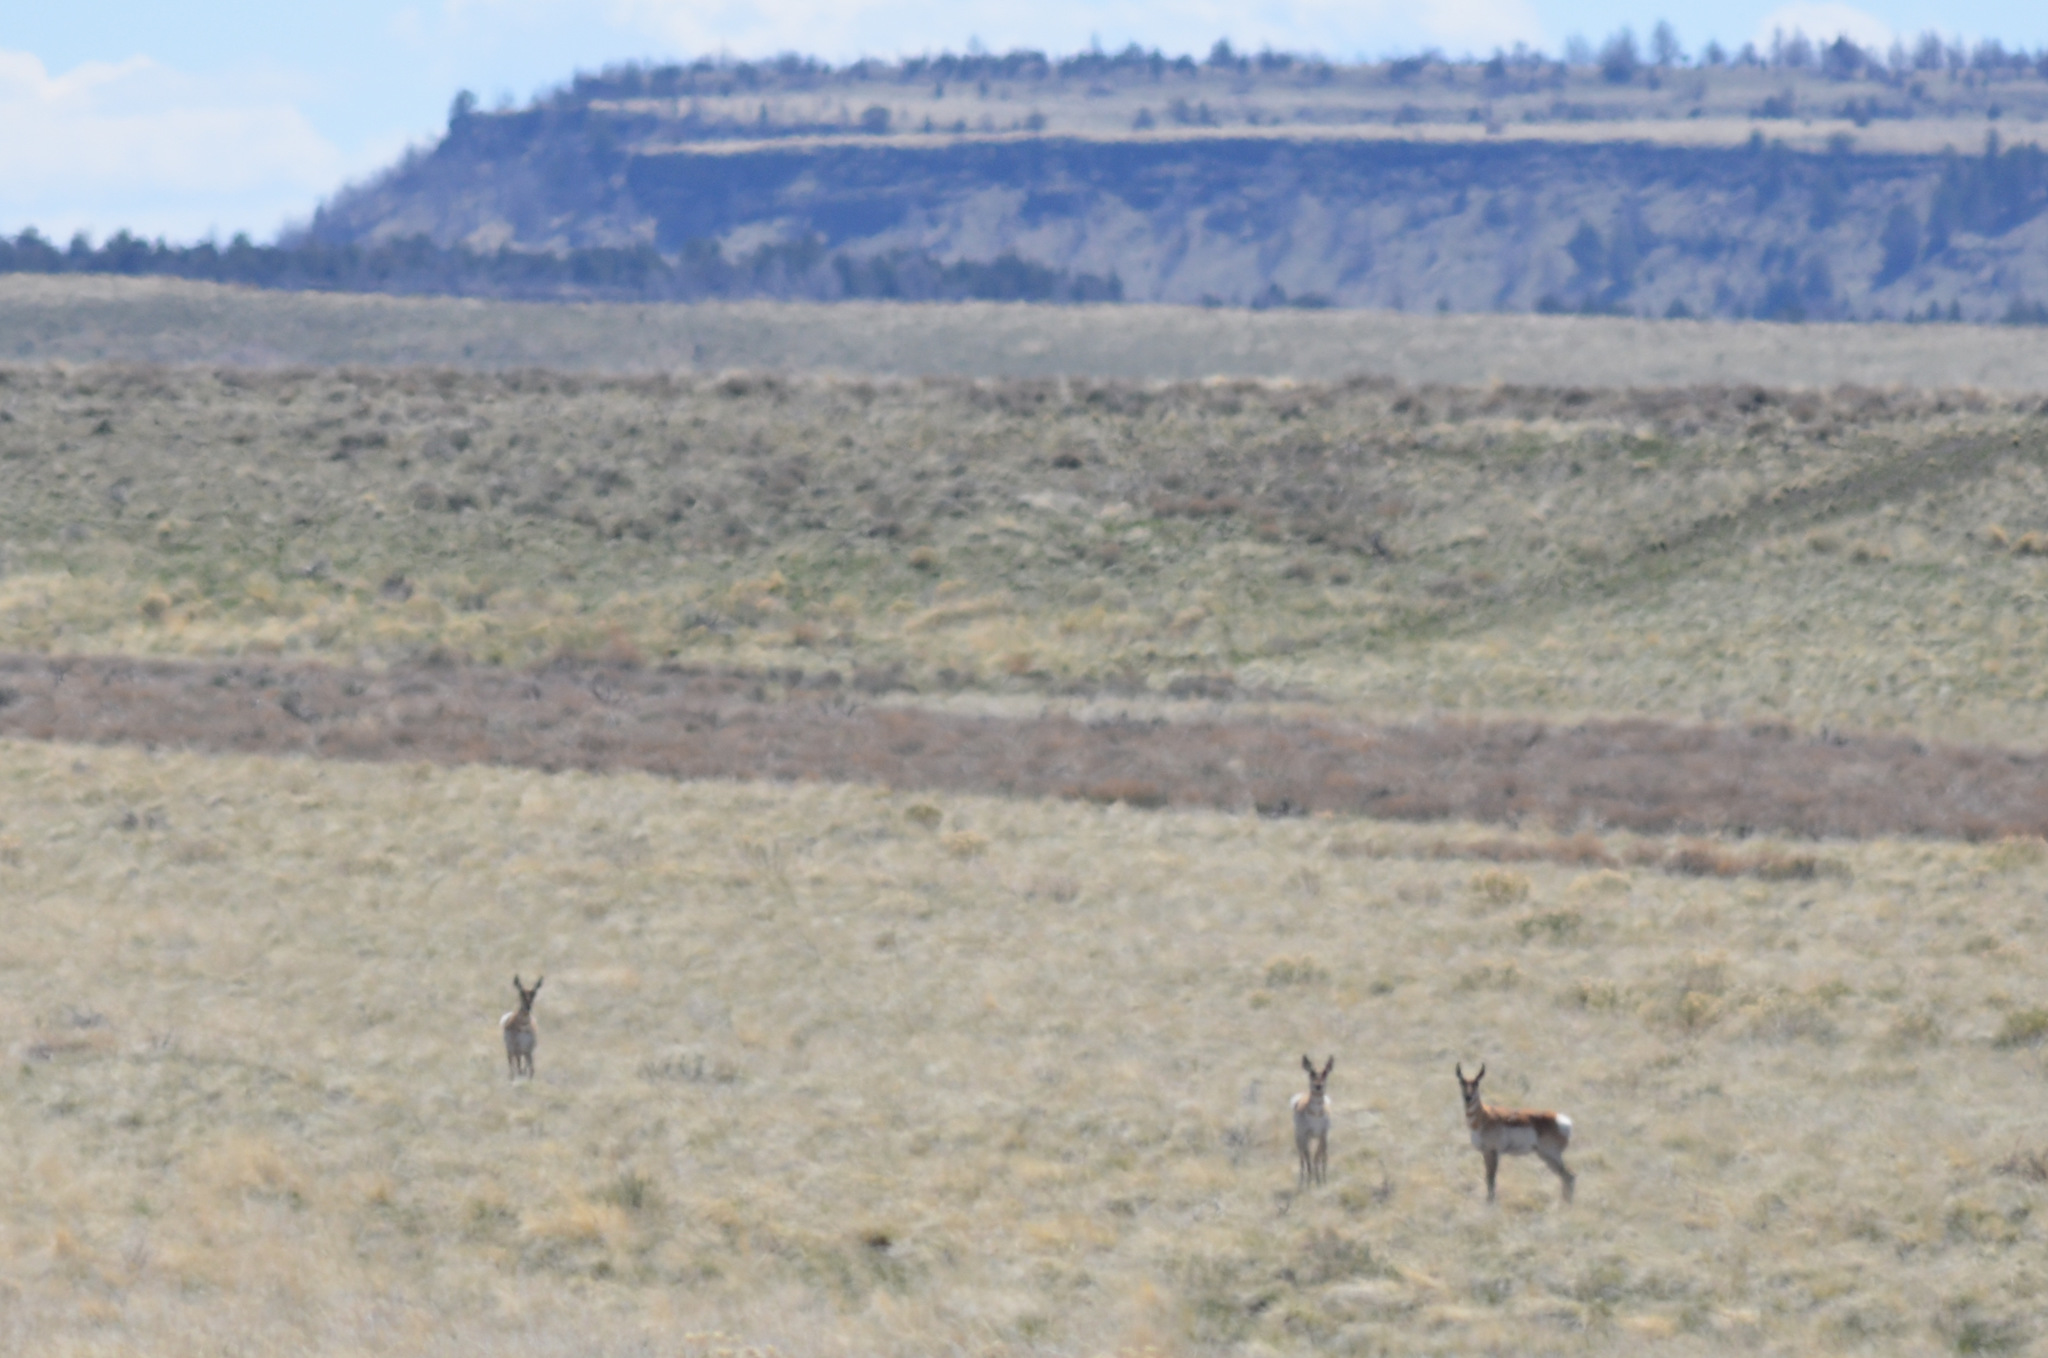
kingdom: Animalia
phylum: Chordata
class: Mammalia
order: Artiodactyla
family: Antilocapridae
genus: Antilocapra
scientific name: Antilocapra americana
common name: Pronghorn
